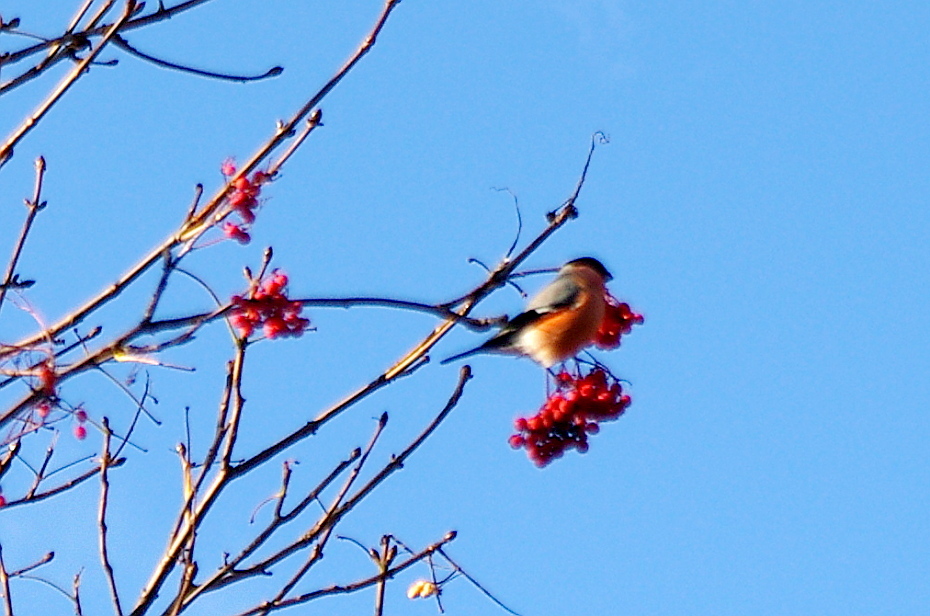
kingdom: Animalia
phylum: Chordata
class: Aves
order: Passeriformes
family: Fringillidae
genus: Pyrrhula
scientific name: Pyrrhula pyrrhula
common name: Eurasian bullfinch
